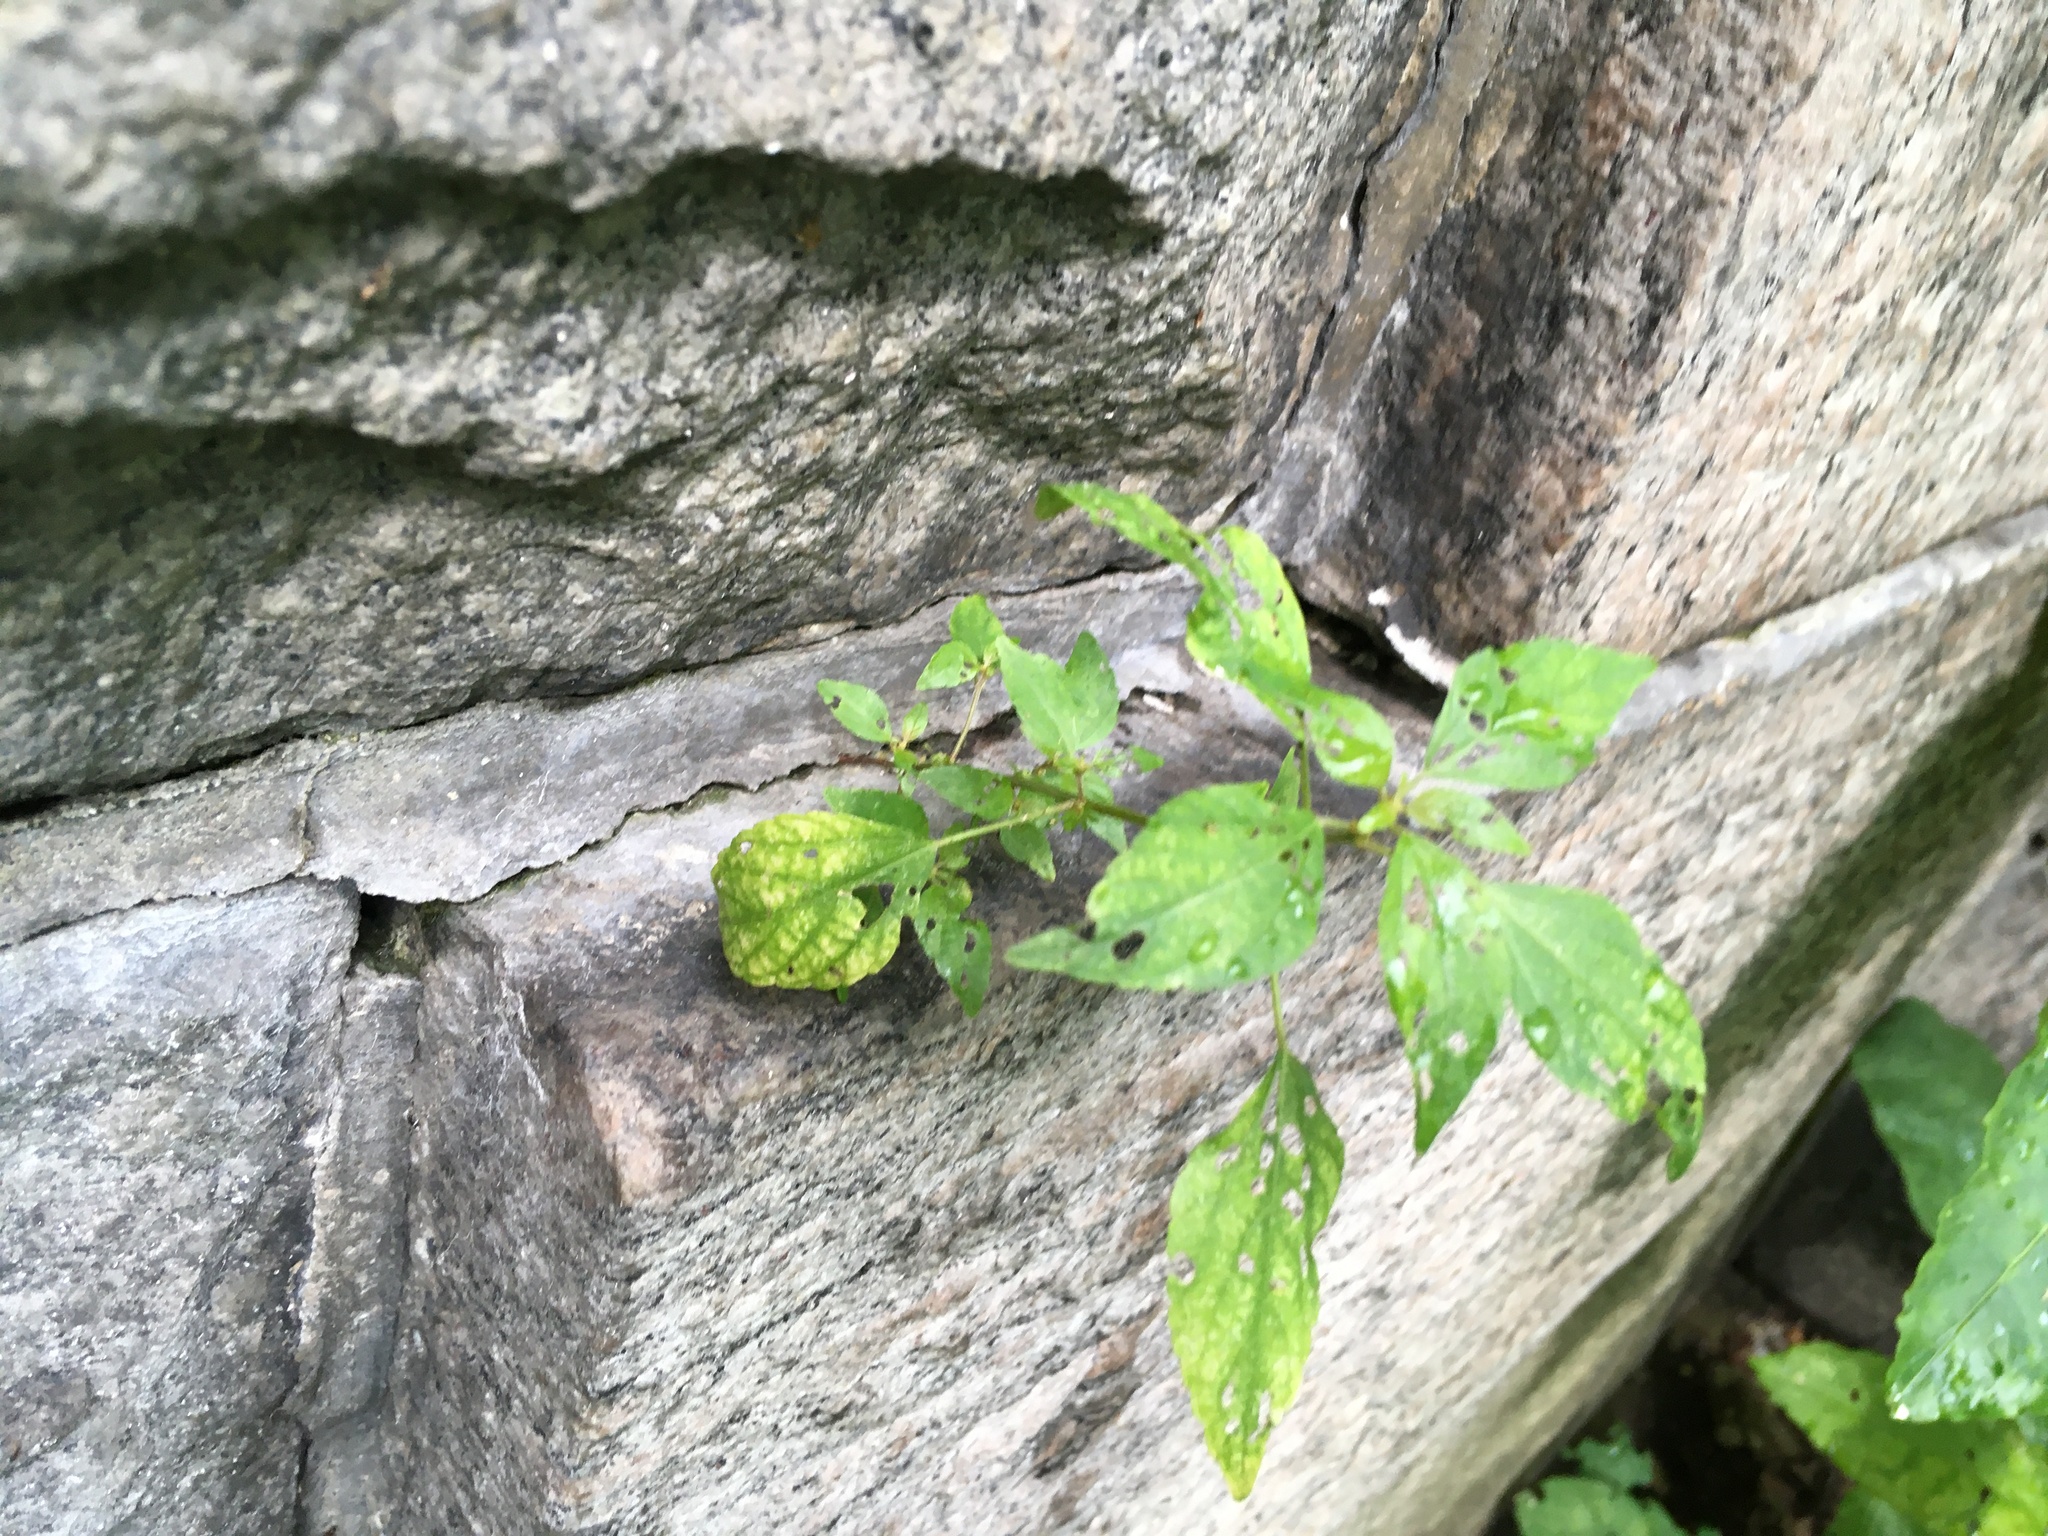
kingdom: Plantae
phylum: Tracheophyta
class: Magnoliopsida
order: Malpighiales
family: Euphorbiaceae
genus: Acalypha
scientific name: Acalypha rhomboidea
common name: Rhombic copperleaf
